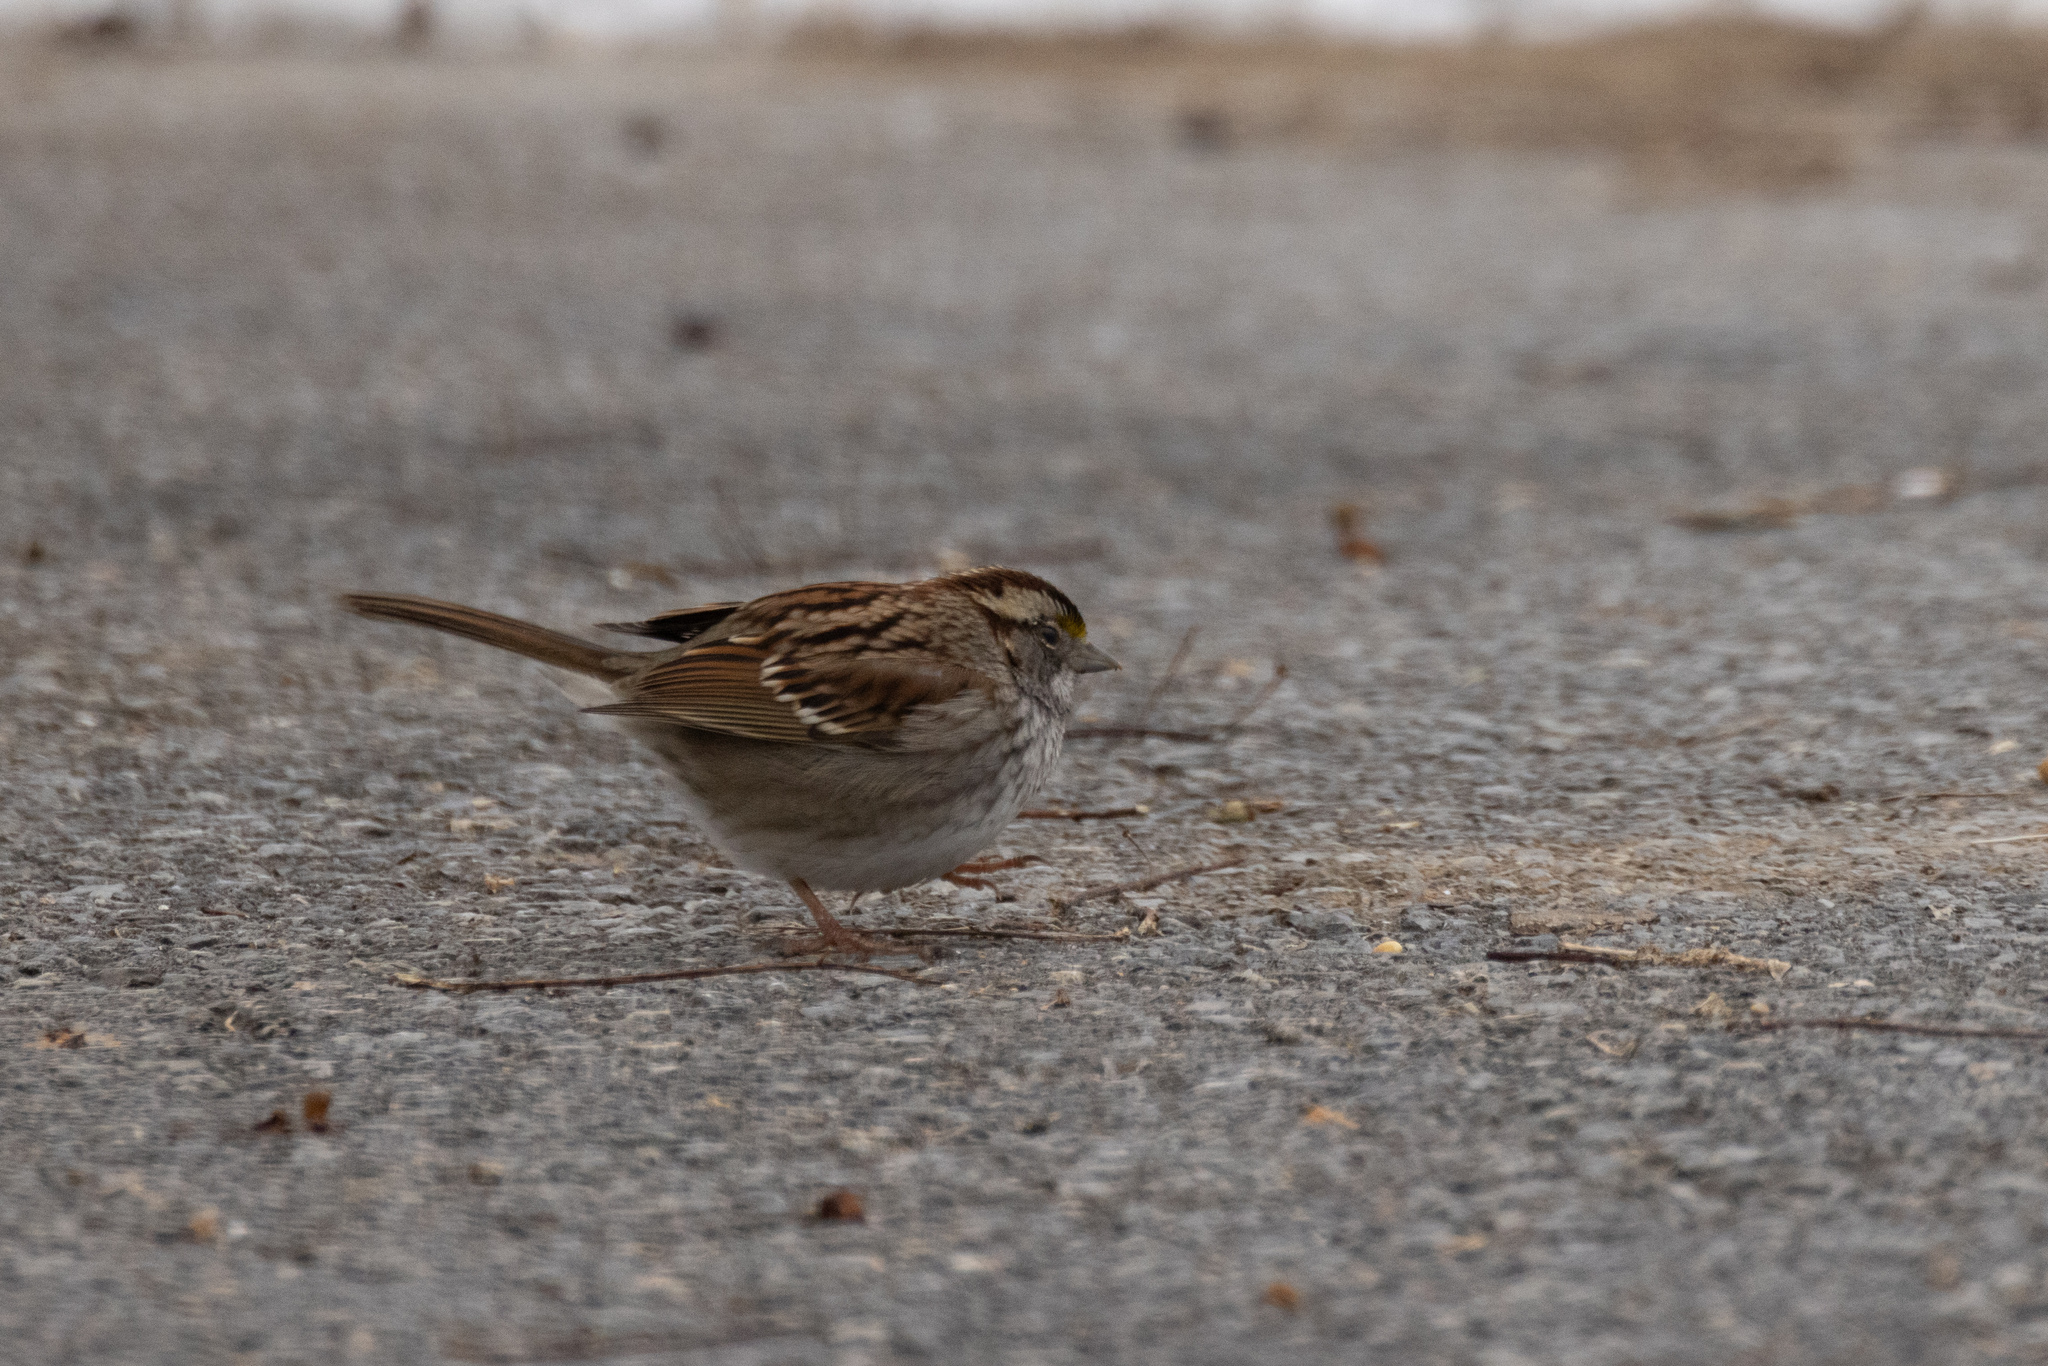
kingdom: Animalia
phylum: Chordata
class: Aves
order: Passeriformes
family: Passerellidae
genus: Zonotrichia
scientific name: Zonotrichia albicollis
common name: White-throated sparrow
